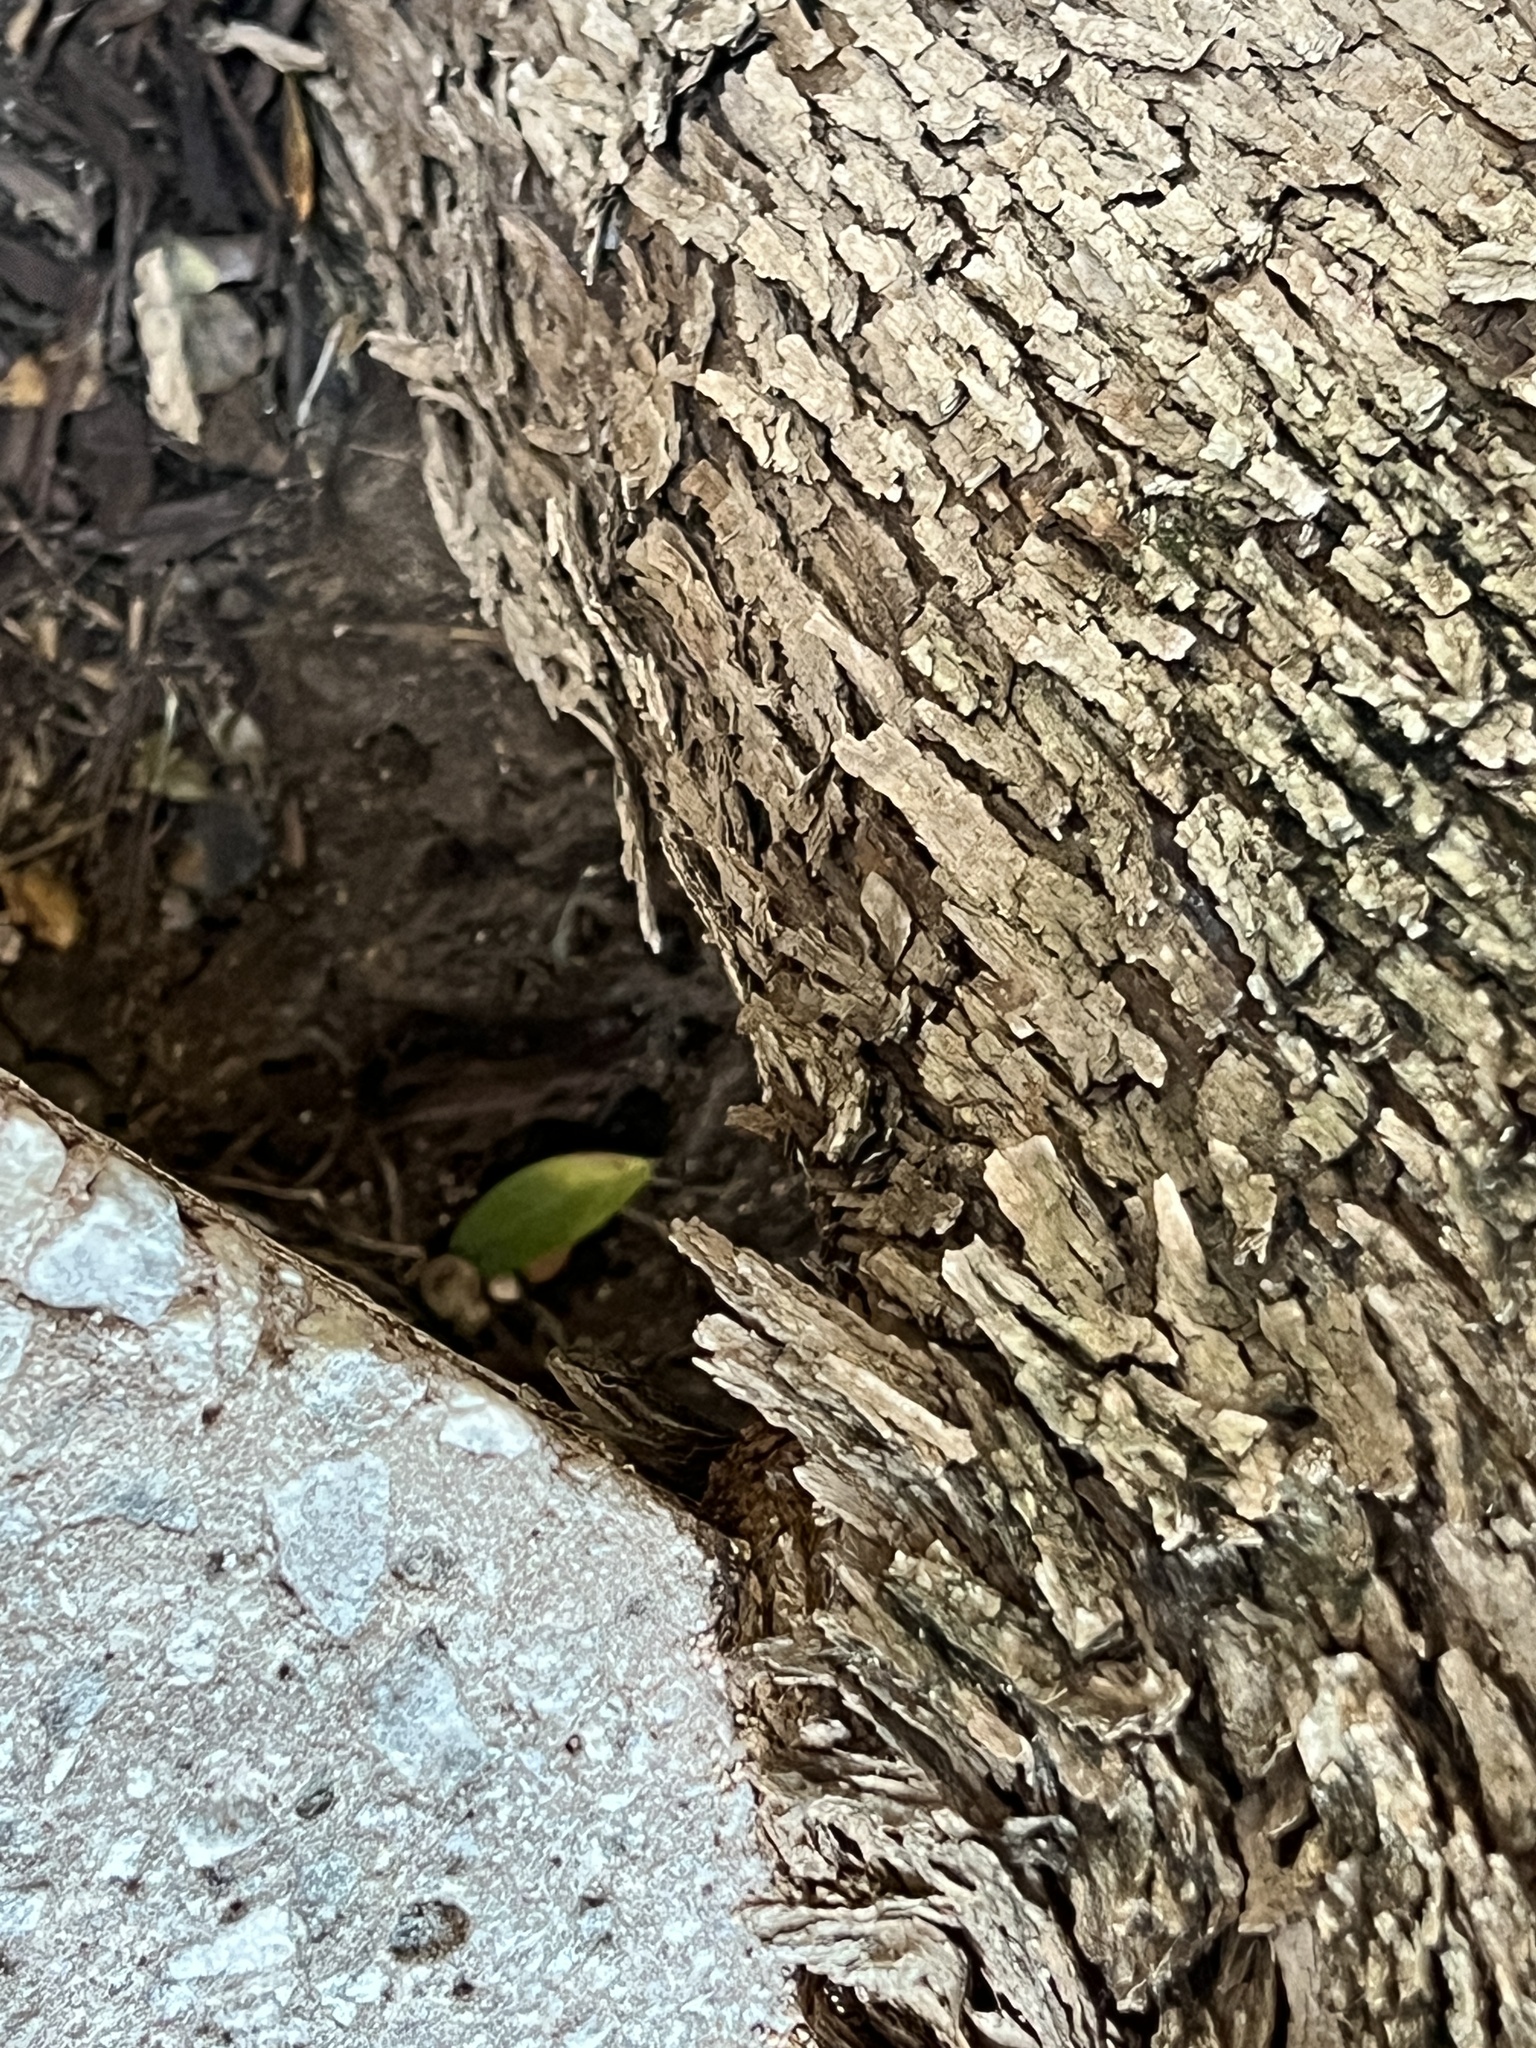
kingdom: Animalia
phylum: Chordata
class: Squamata
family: Phrynosomatidae
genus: Sceloporus
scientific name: Sceloporus variabilis
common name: Rosebelly lizard
